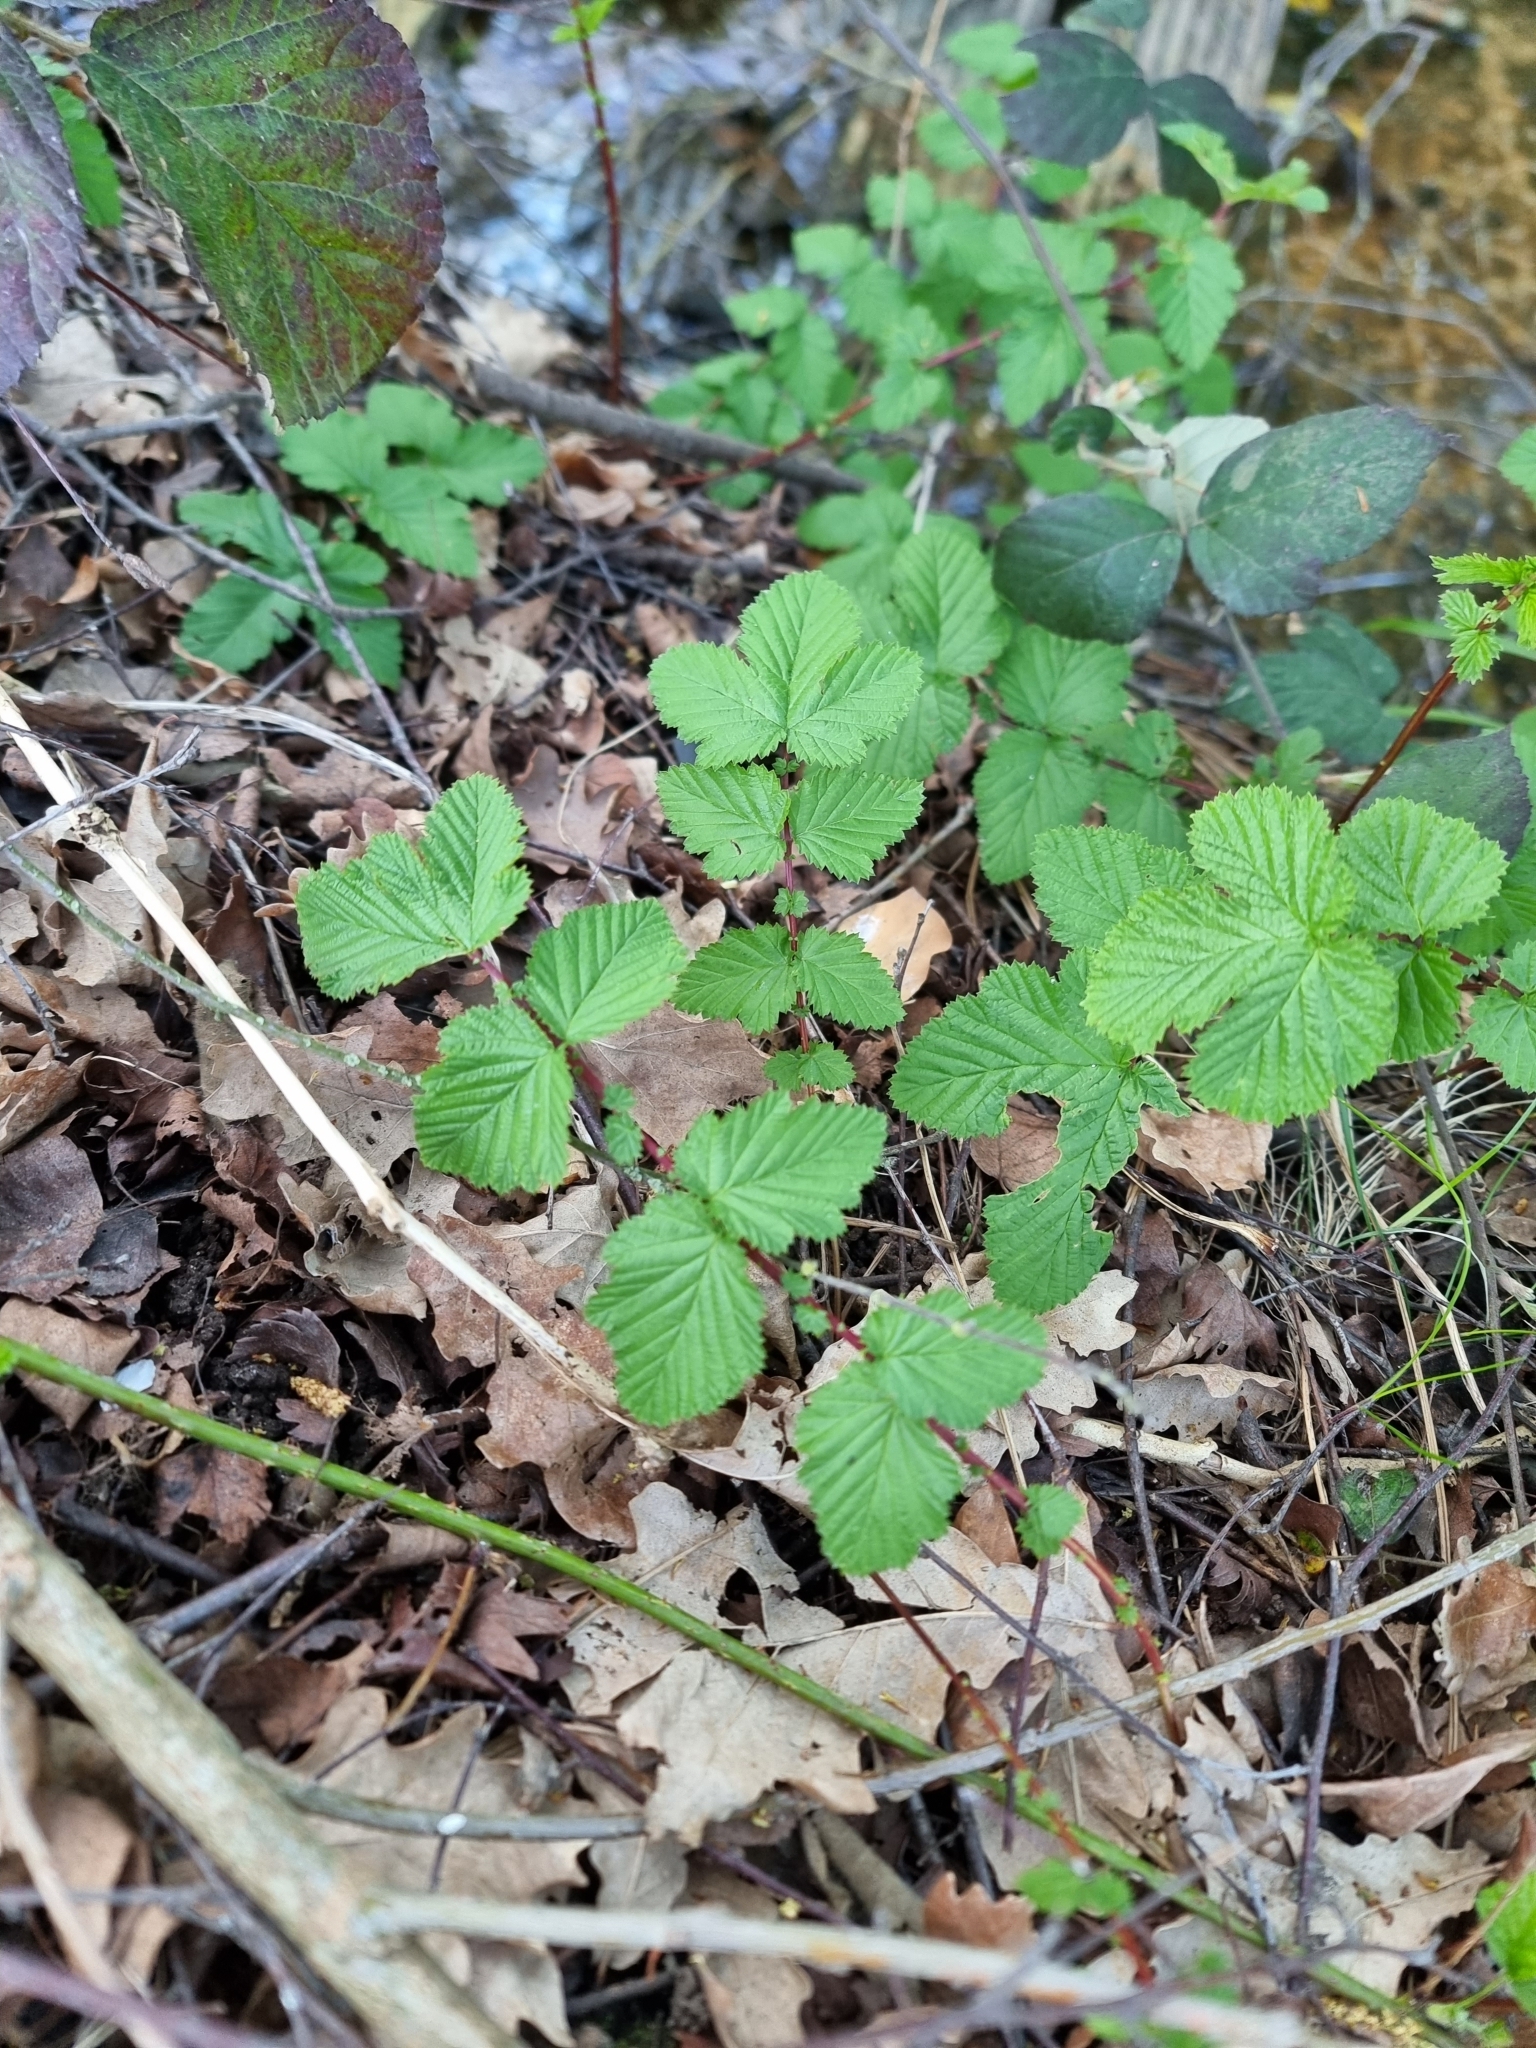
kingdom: Plantae
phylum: Tracheophyta
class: Magnoliopsida
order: Rosales
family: Rosaceae
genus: Filipendula
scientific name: Filipendula ulmaria
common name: Meadowsweet
